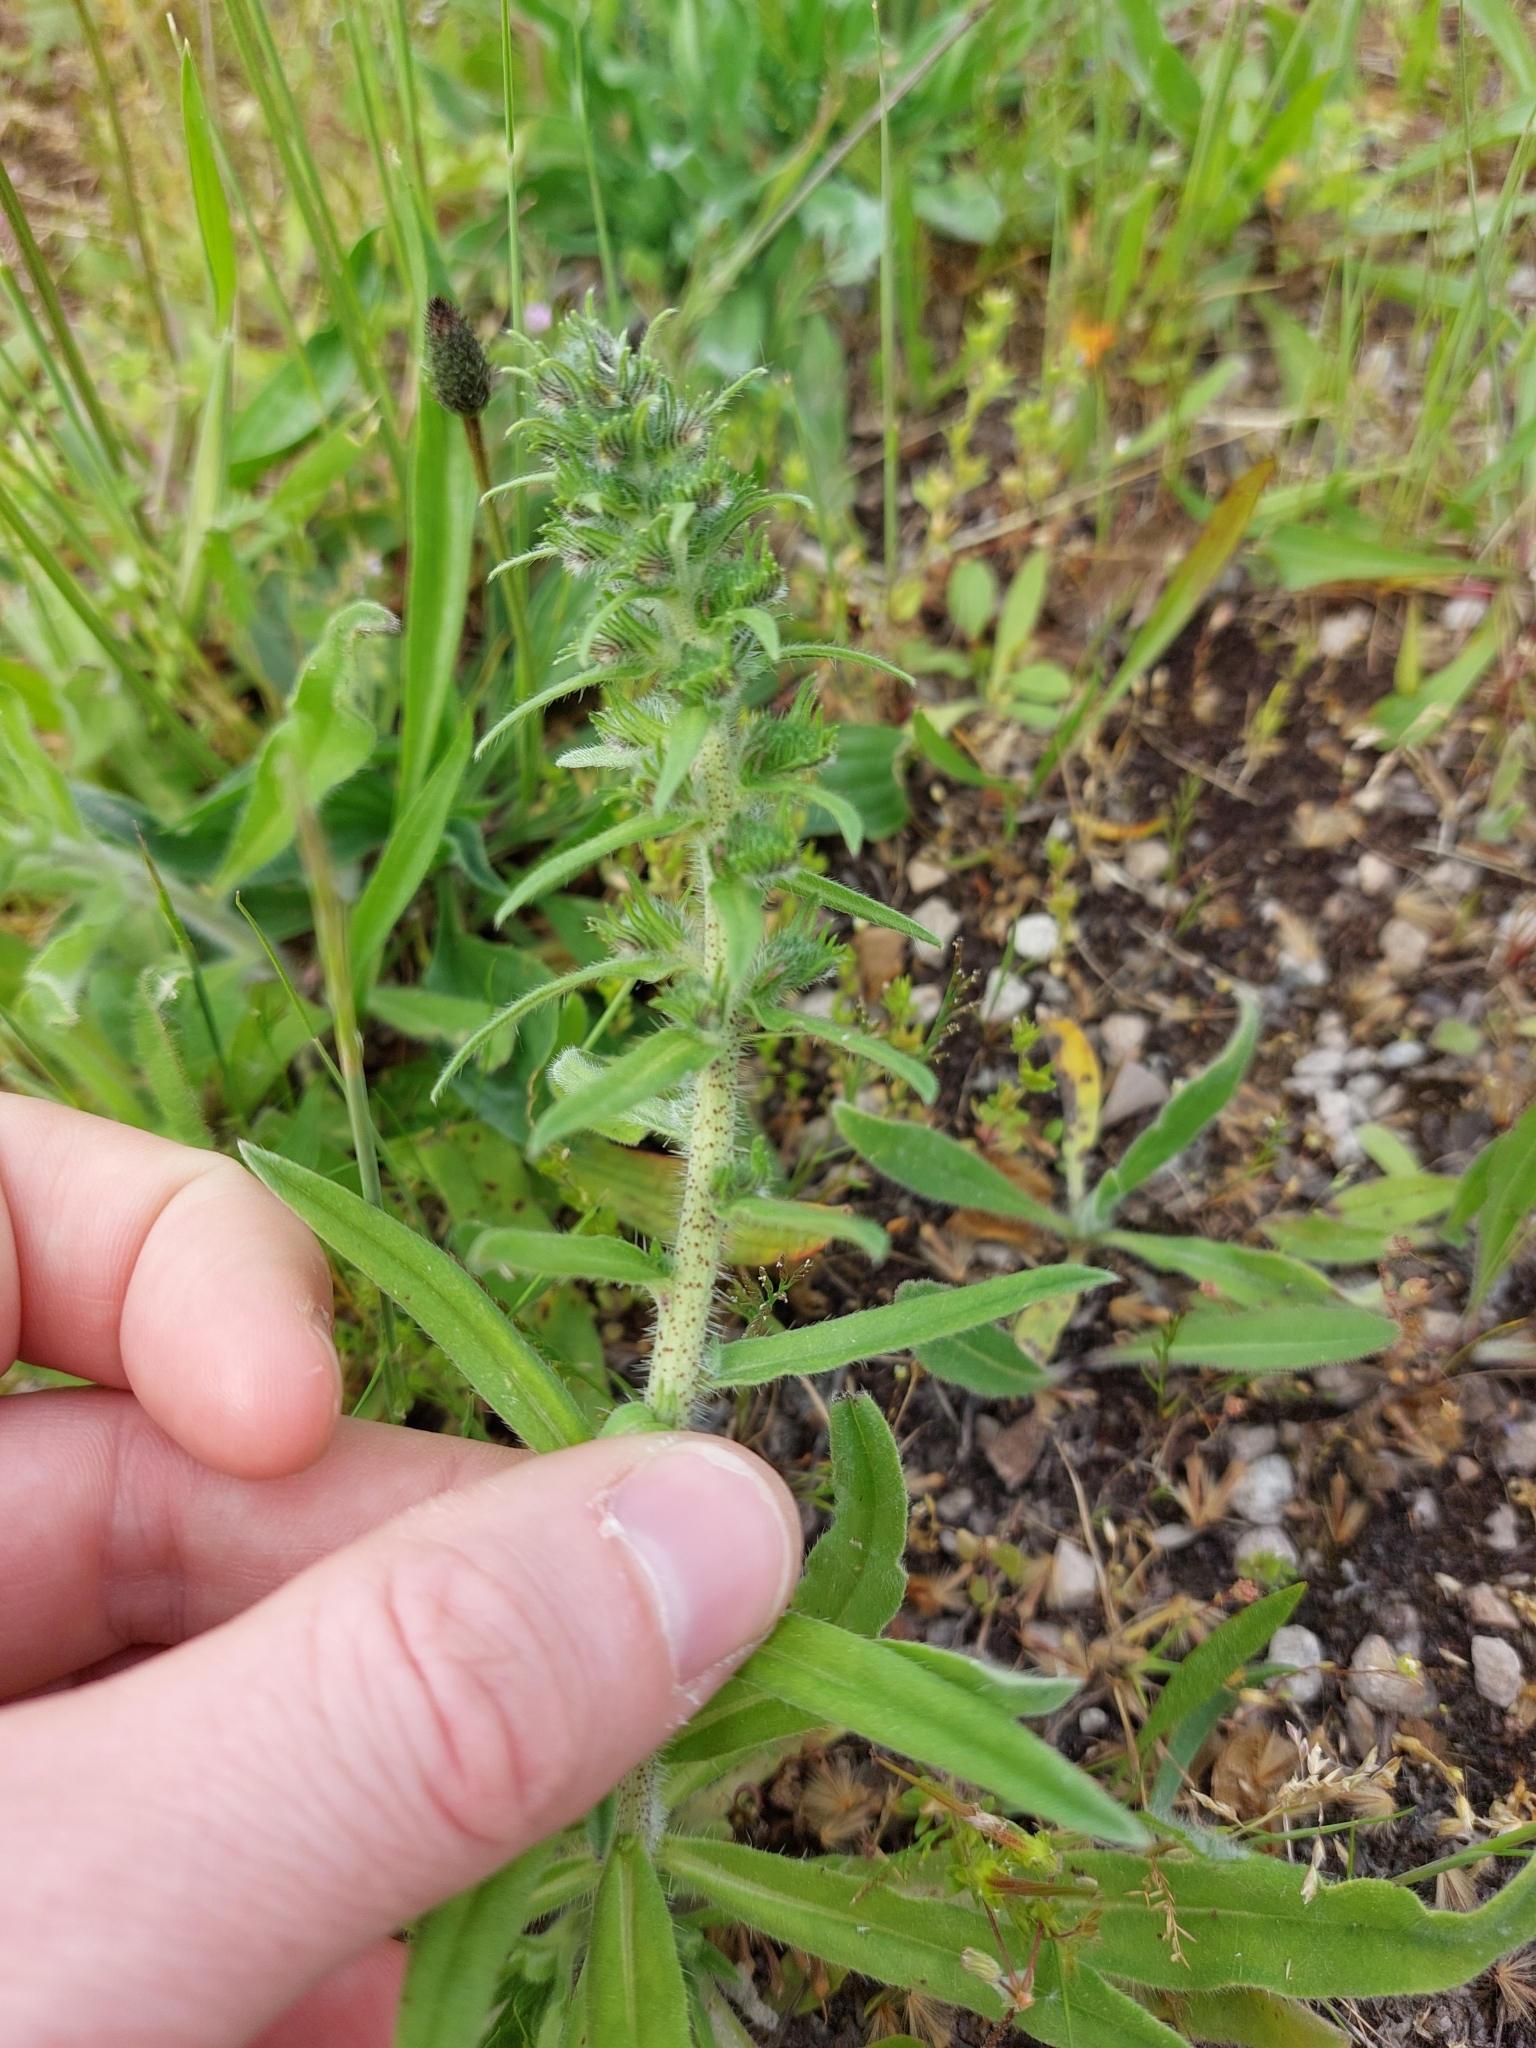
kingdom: Plantae
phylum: Tracheophyta
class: Magnoliopsida
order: Boraginales
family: Boraginaceae
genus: Echium
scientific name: Echium vulgare
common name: Common viper's bugloss
